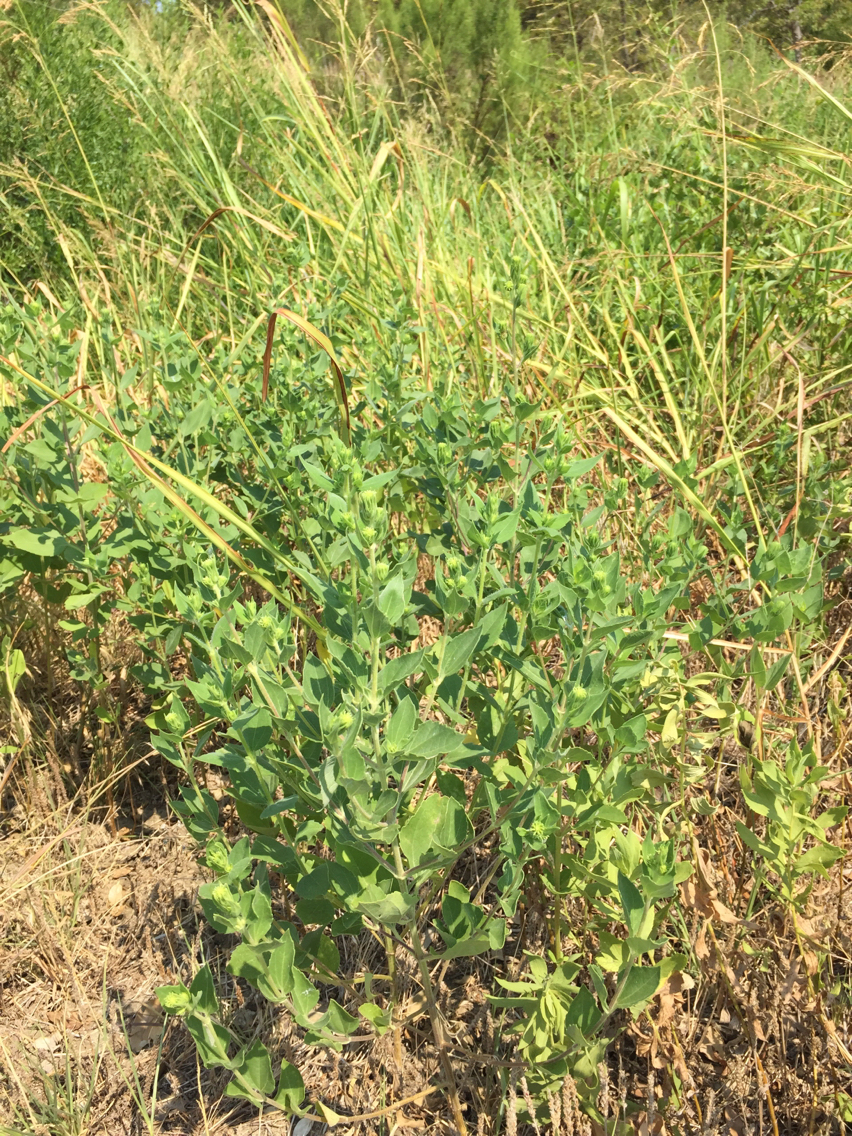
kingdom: Plantae
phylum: Tracheophyta
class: Magnoliopsida
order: Asterales
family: Asteraceae
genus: Iva
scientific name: Iva annua
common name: Marsh-elder
